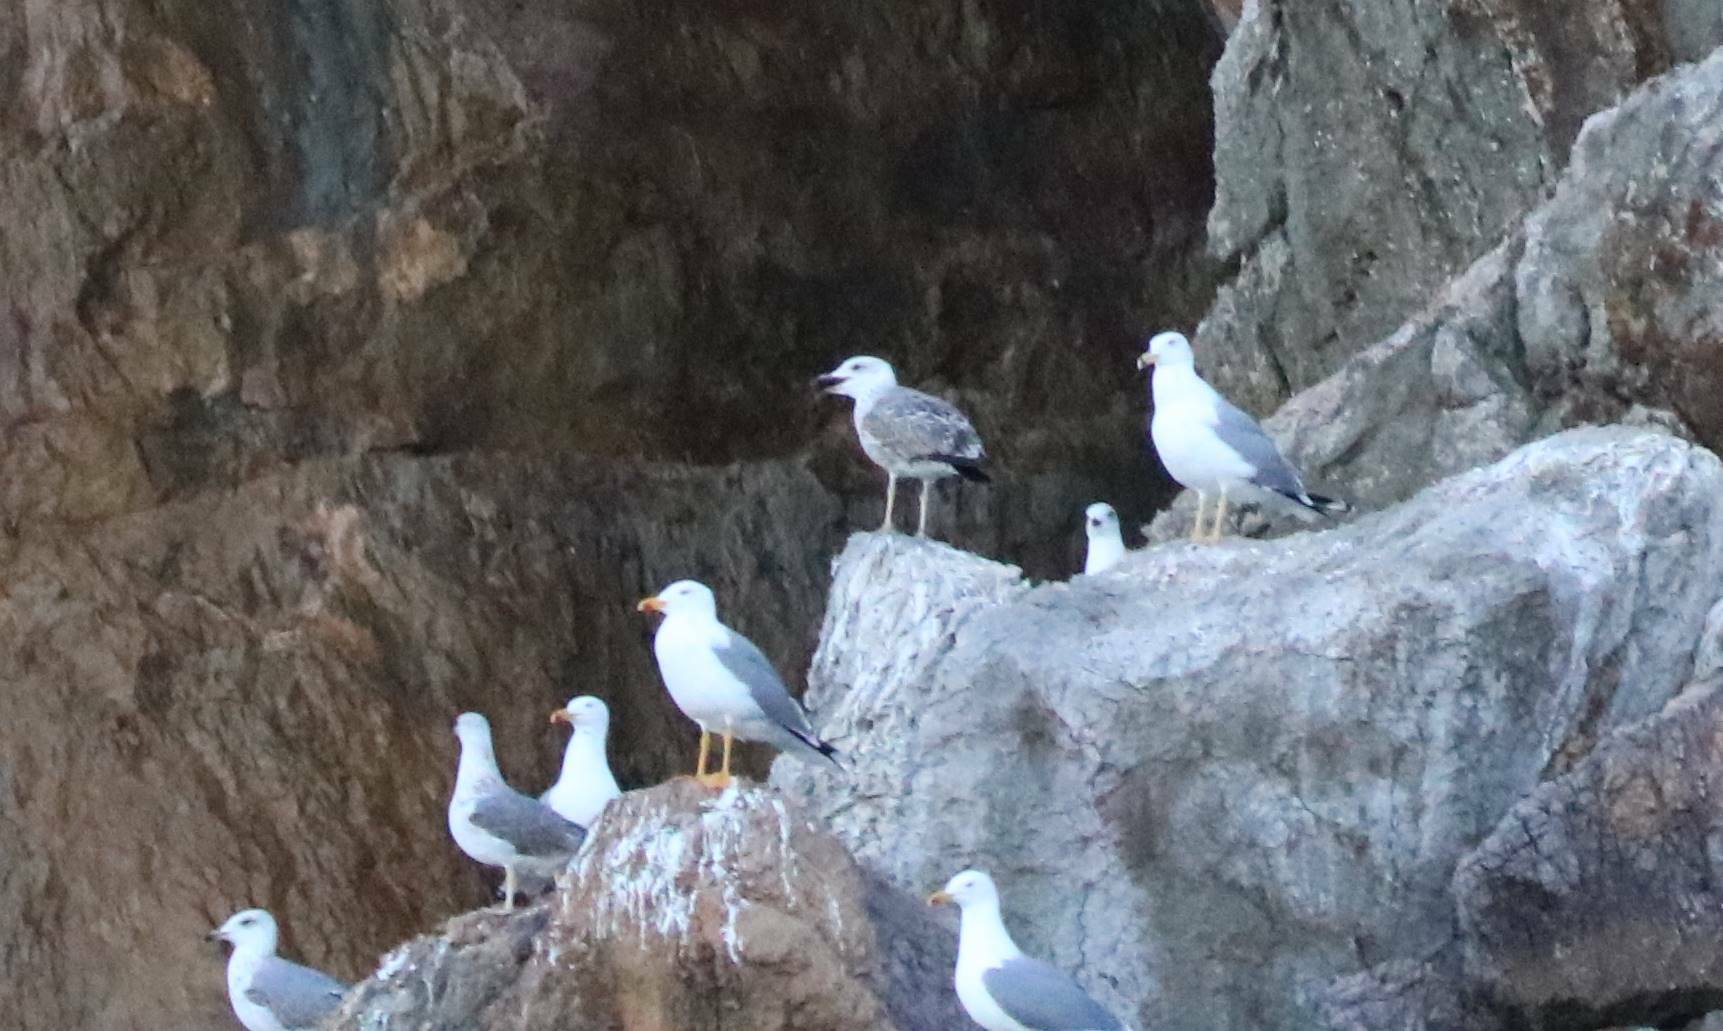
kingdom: Animalia
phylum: Chordata
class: Aves
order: Charadriiformes
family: Laridae
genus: Larus
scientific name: Larus michahellis
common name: Yellow-legged gull
